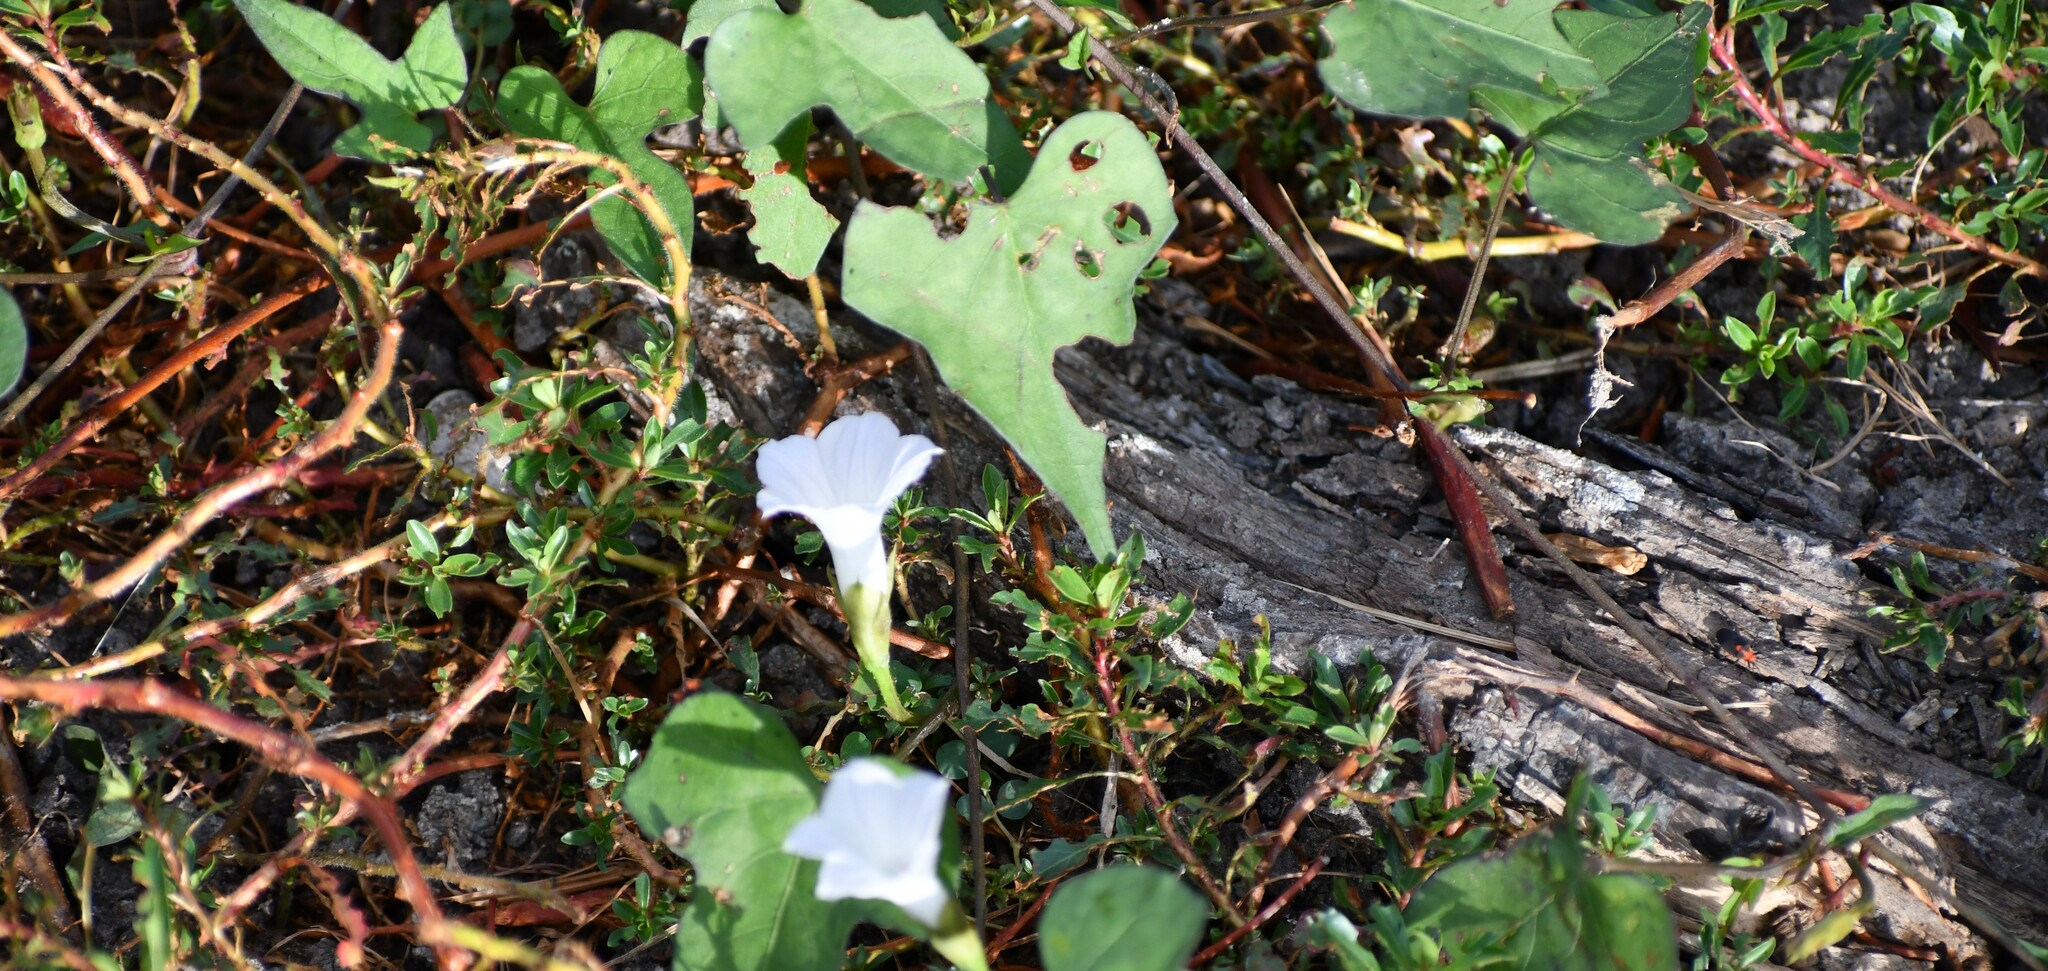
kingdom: Plantae
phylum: Tracheophyta
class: Magnoliopsida
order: Solanales
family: Convolvulaceae
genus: Ipomoea
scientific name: Ipomoea lacunosa
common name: White morning-glory
